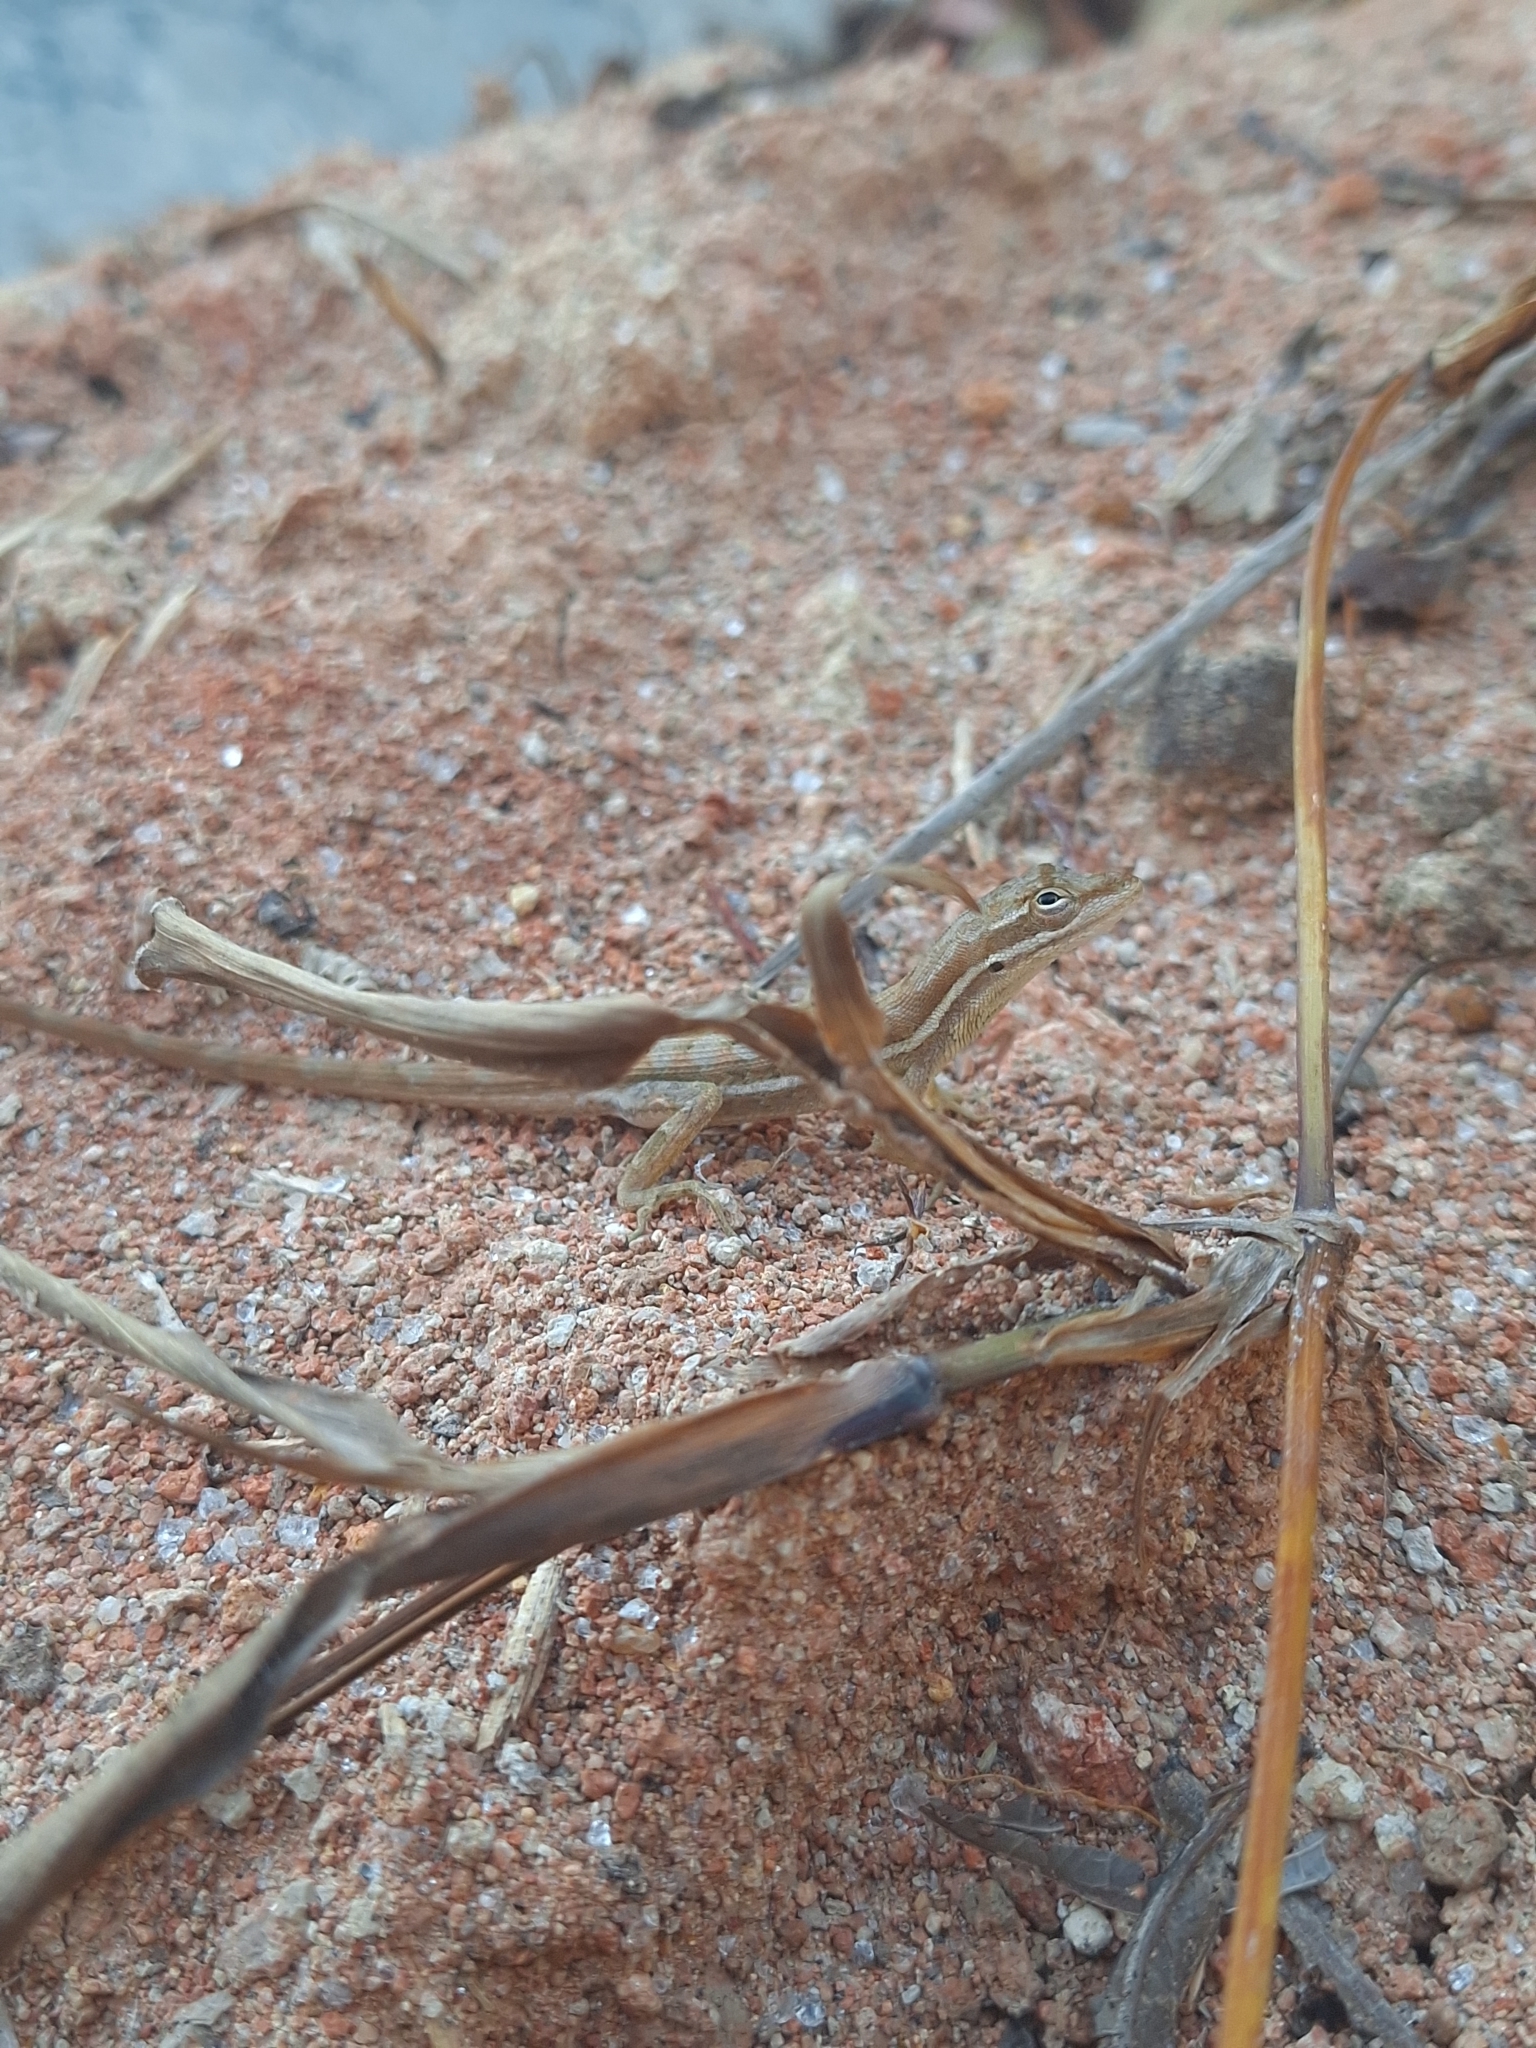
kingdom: Animalia
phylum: Chordata
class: Squamata
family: Dactyloidae
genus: Anolis
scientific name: Anolis auratus
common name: Grass anole
